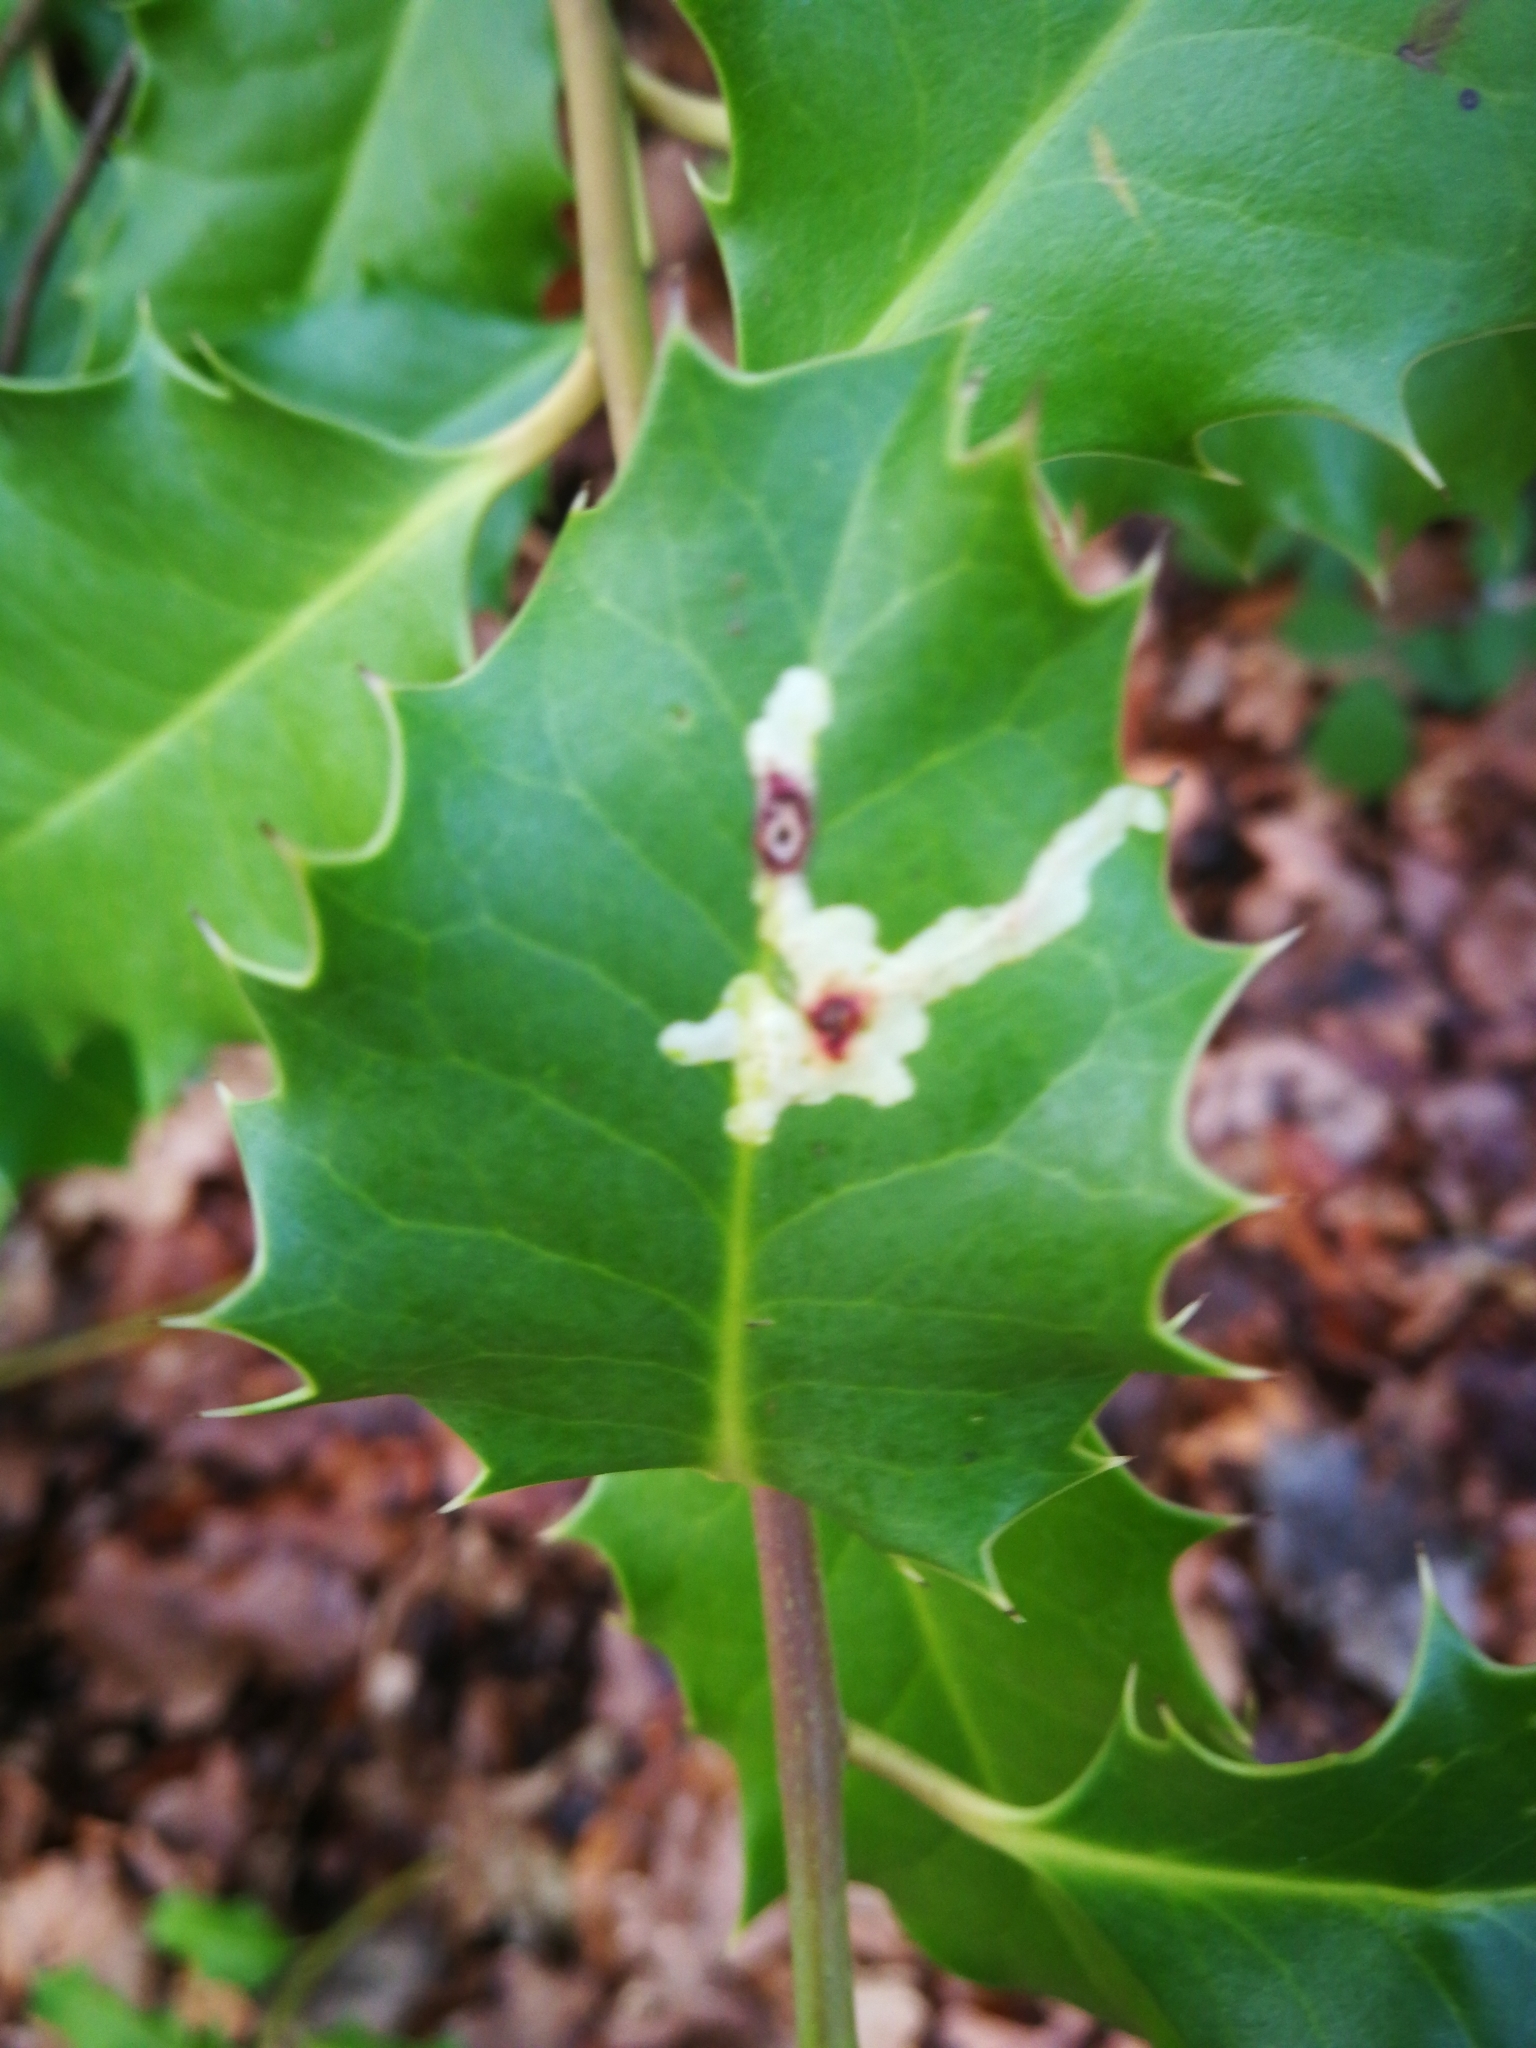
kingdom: Animalia
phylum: Arthropoda
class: Insecta
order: Diptera
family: Agromyzidae
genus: Phytomyza
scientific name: Phytomyza ilicis
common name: Holly leafminer
